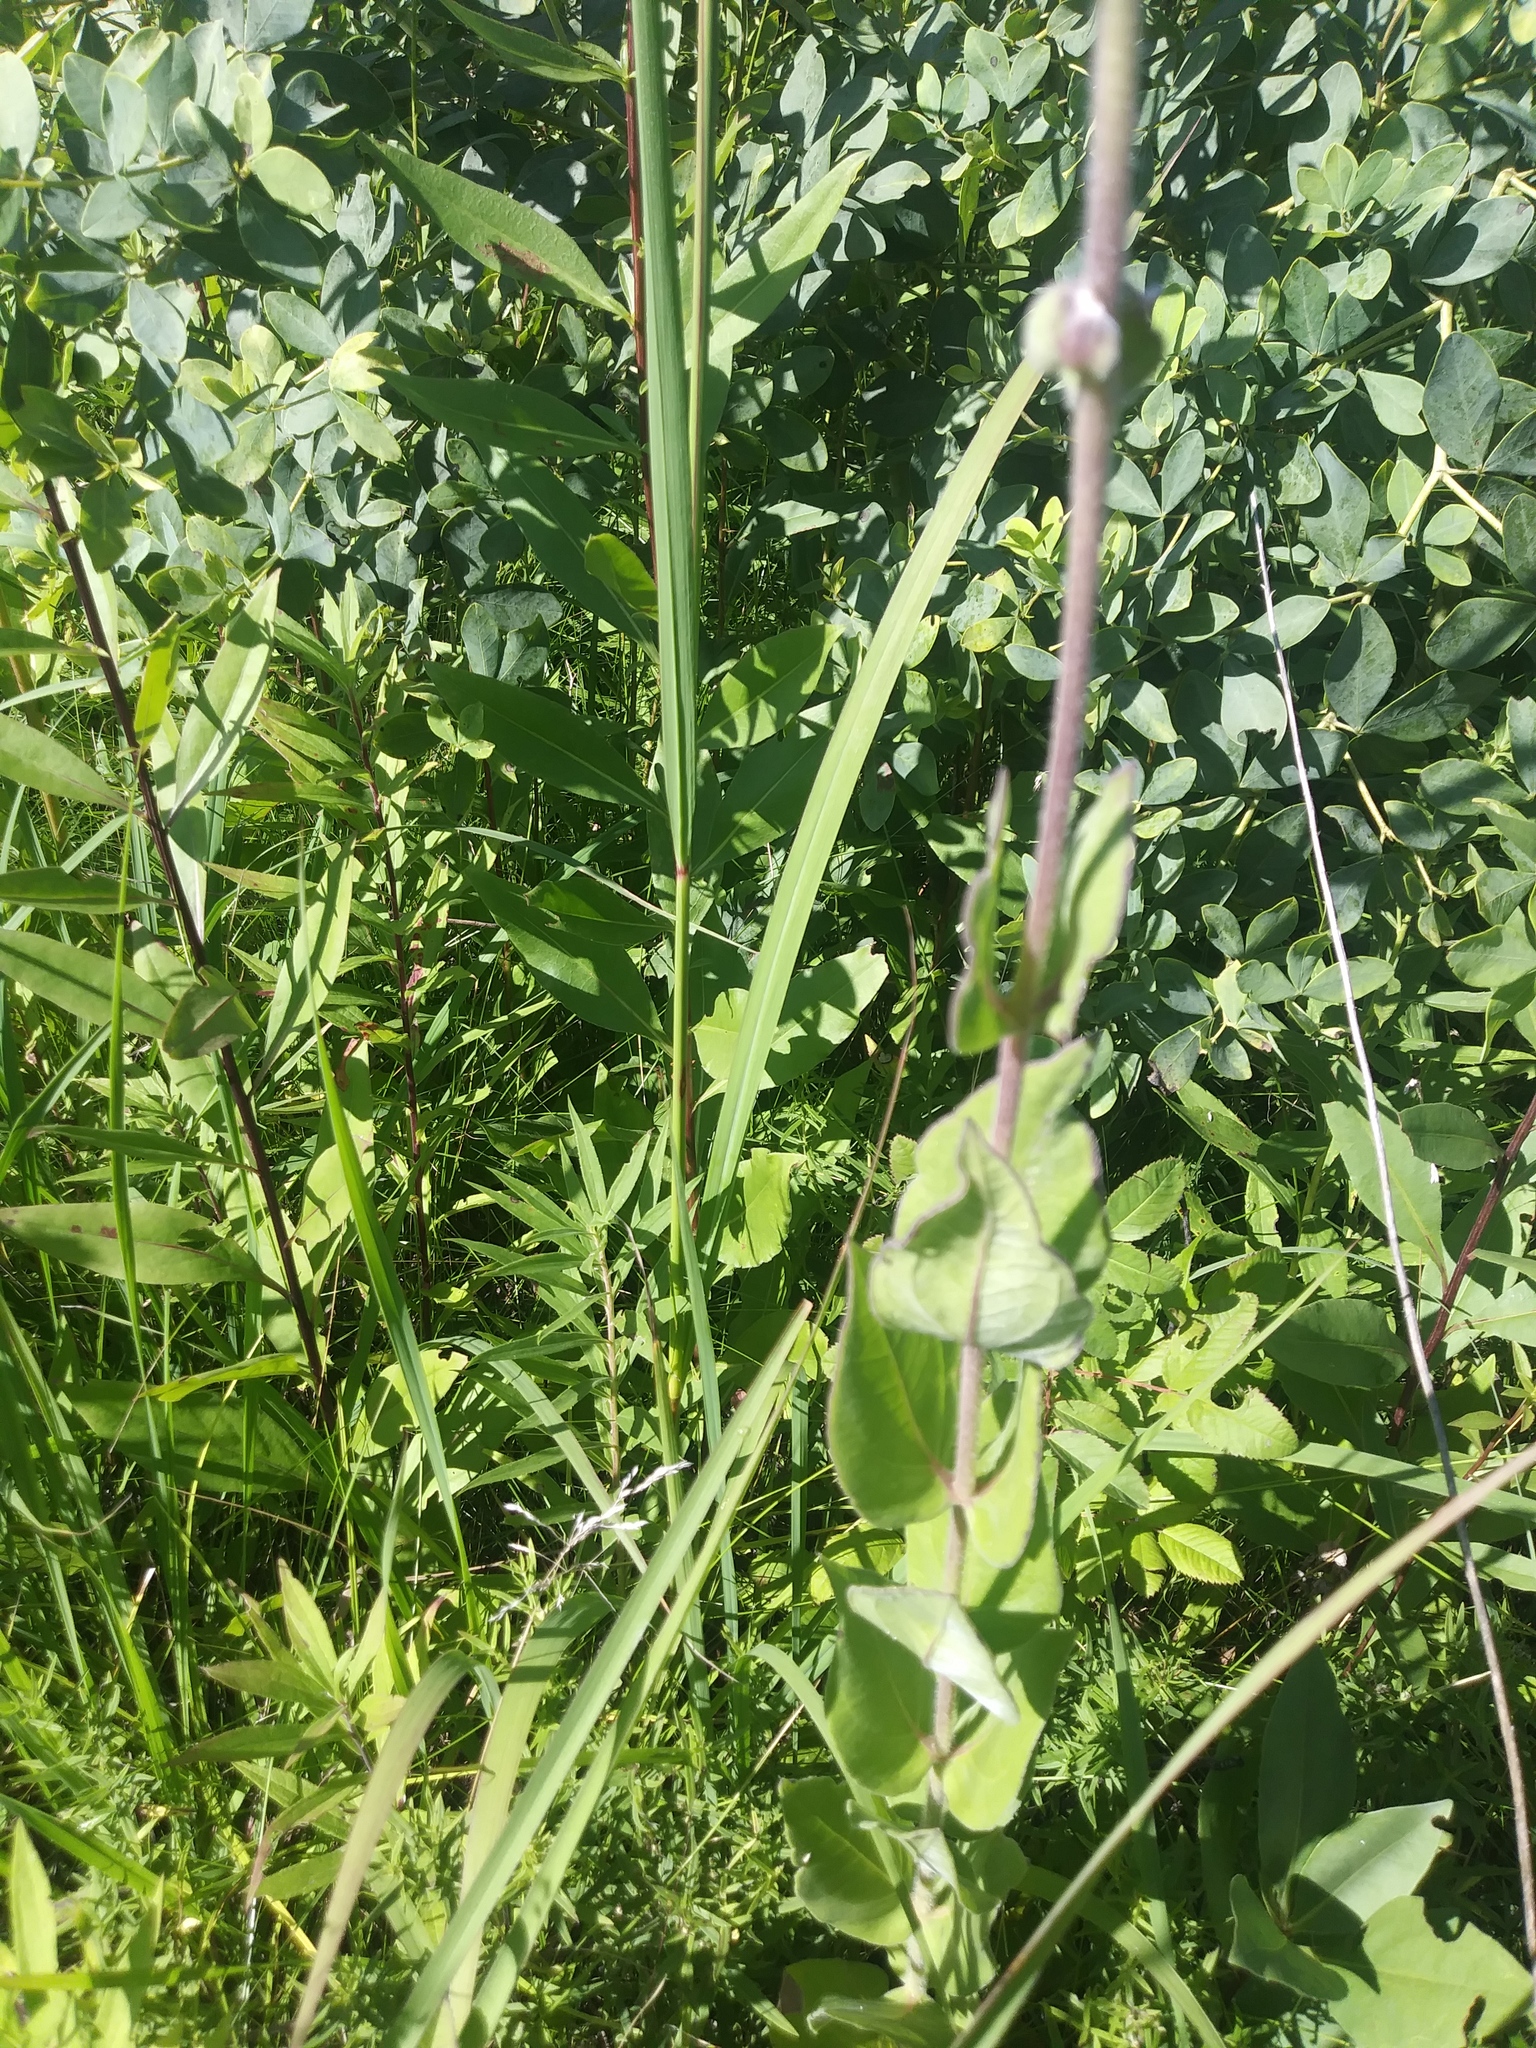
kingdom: Plantae
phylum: Tracheophyta
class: Magnoliopsida
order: Asterales
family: Asteraceae
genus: Silphium
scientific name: Silphium integrifolium
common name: Whole-leaf rosinweed
